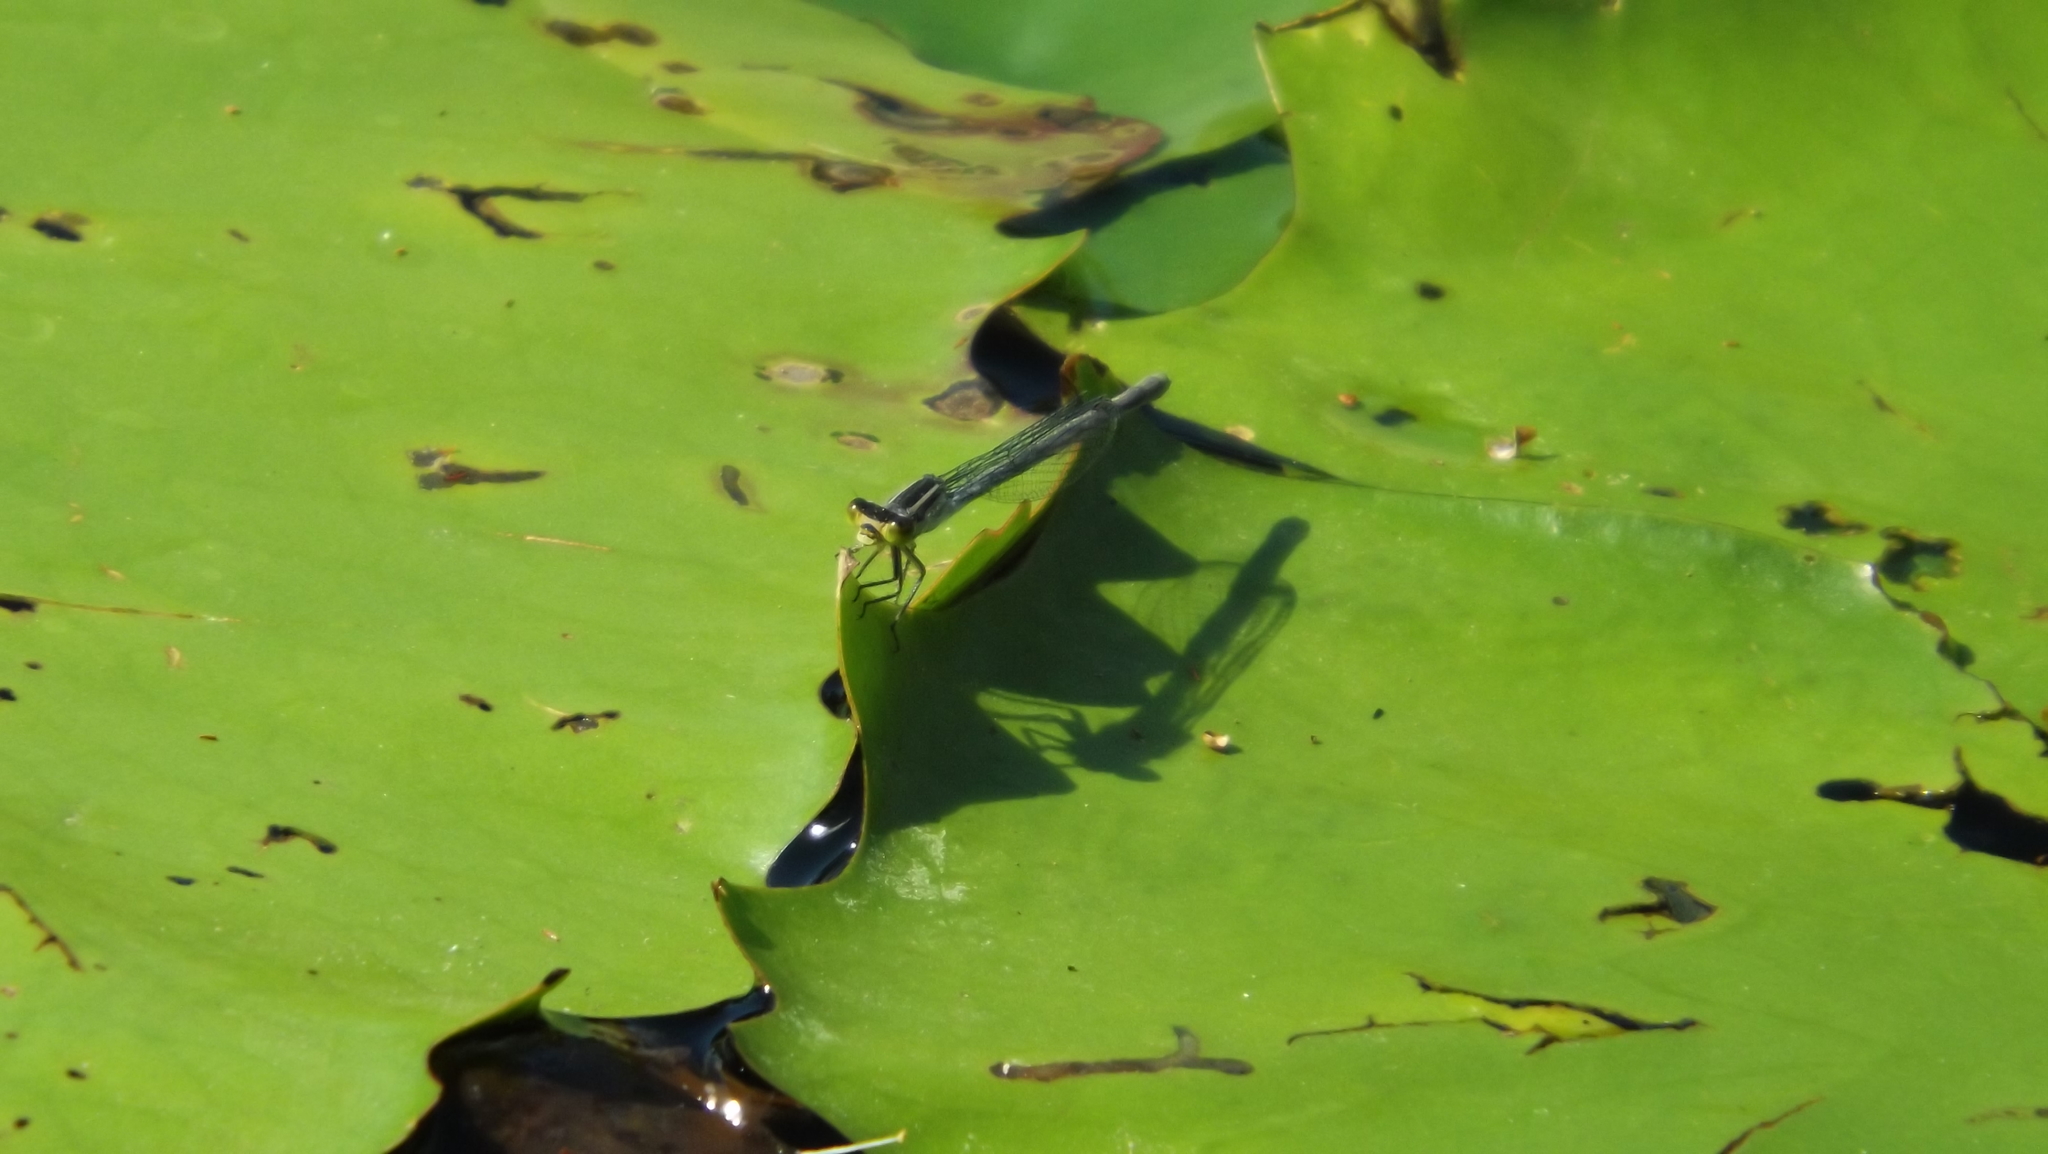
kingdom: Animalia
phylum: Arthropoda
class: Insecta
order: Odonata
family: Coenagrionidae
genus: Ischnura
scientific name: Ischnura heterosticta
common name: Common bluetail
